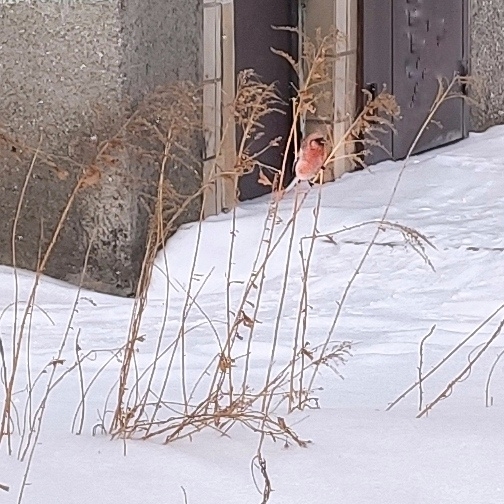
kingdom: Animalia
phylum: Chordata
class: Aves
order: Passeriformes
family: Fringillidae
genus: Carpodacus
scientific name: Carpodacus sibiricus
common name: Long-tailed rosefinch
